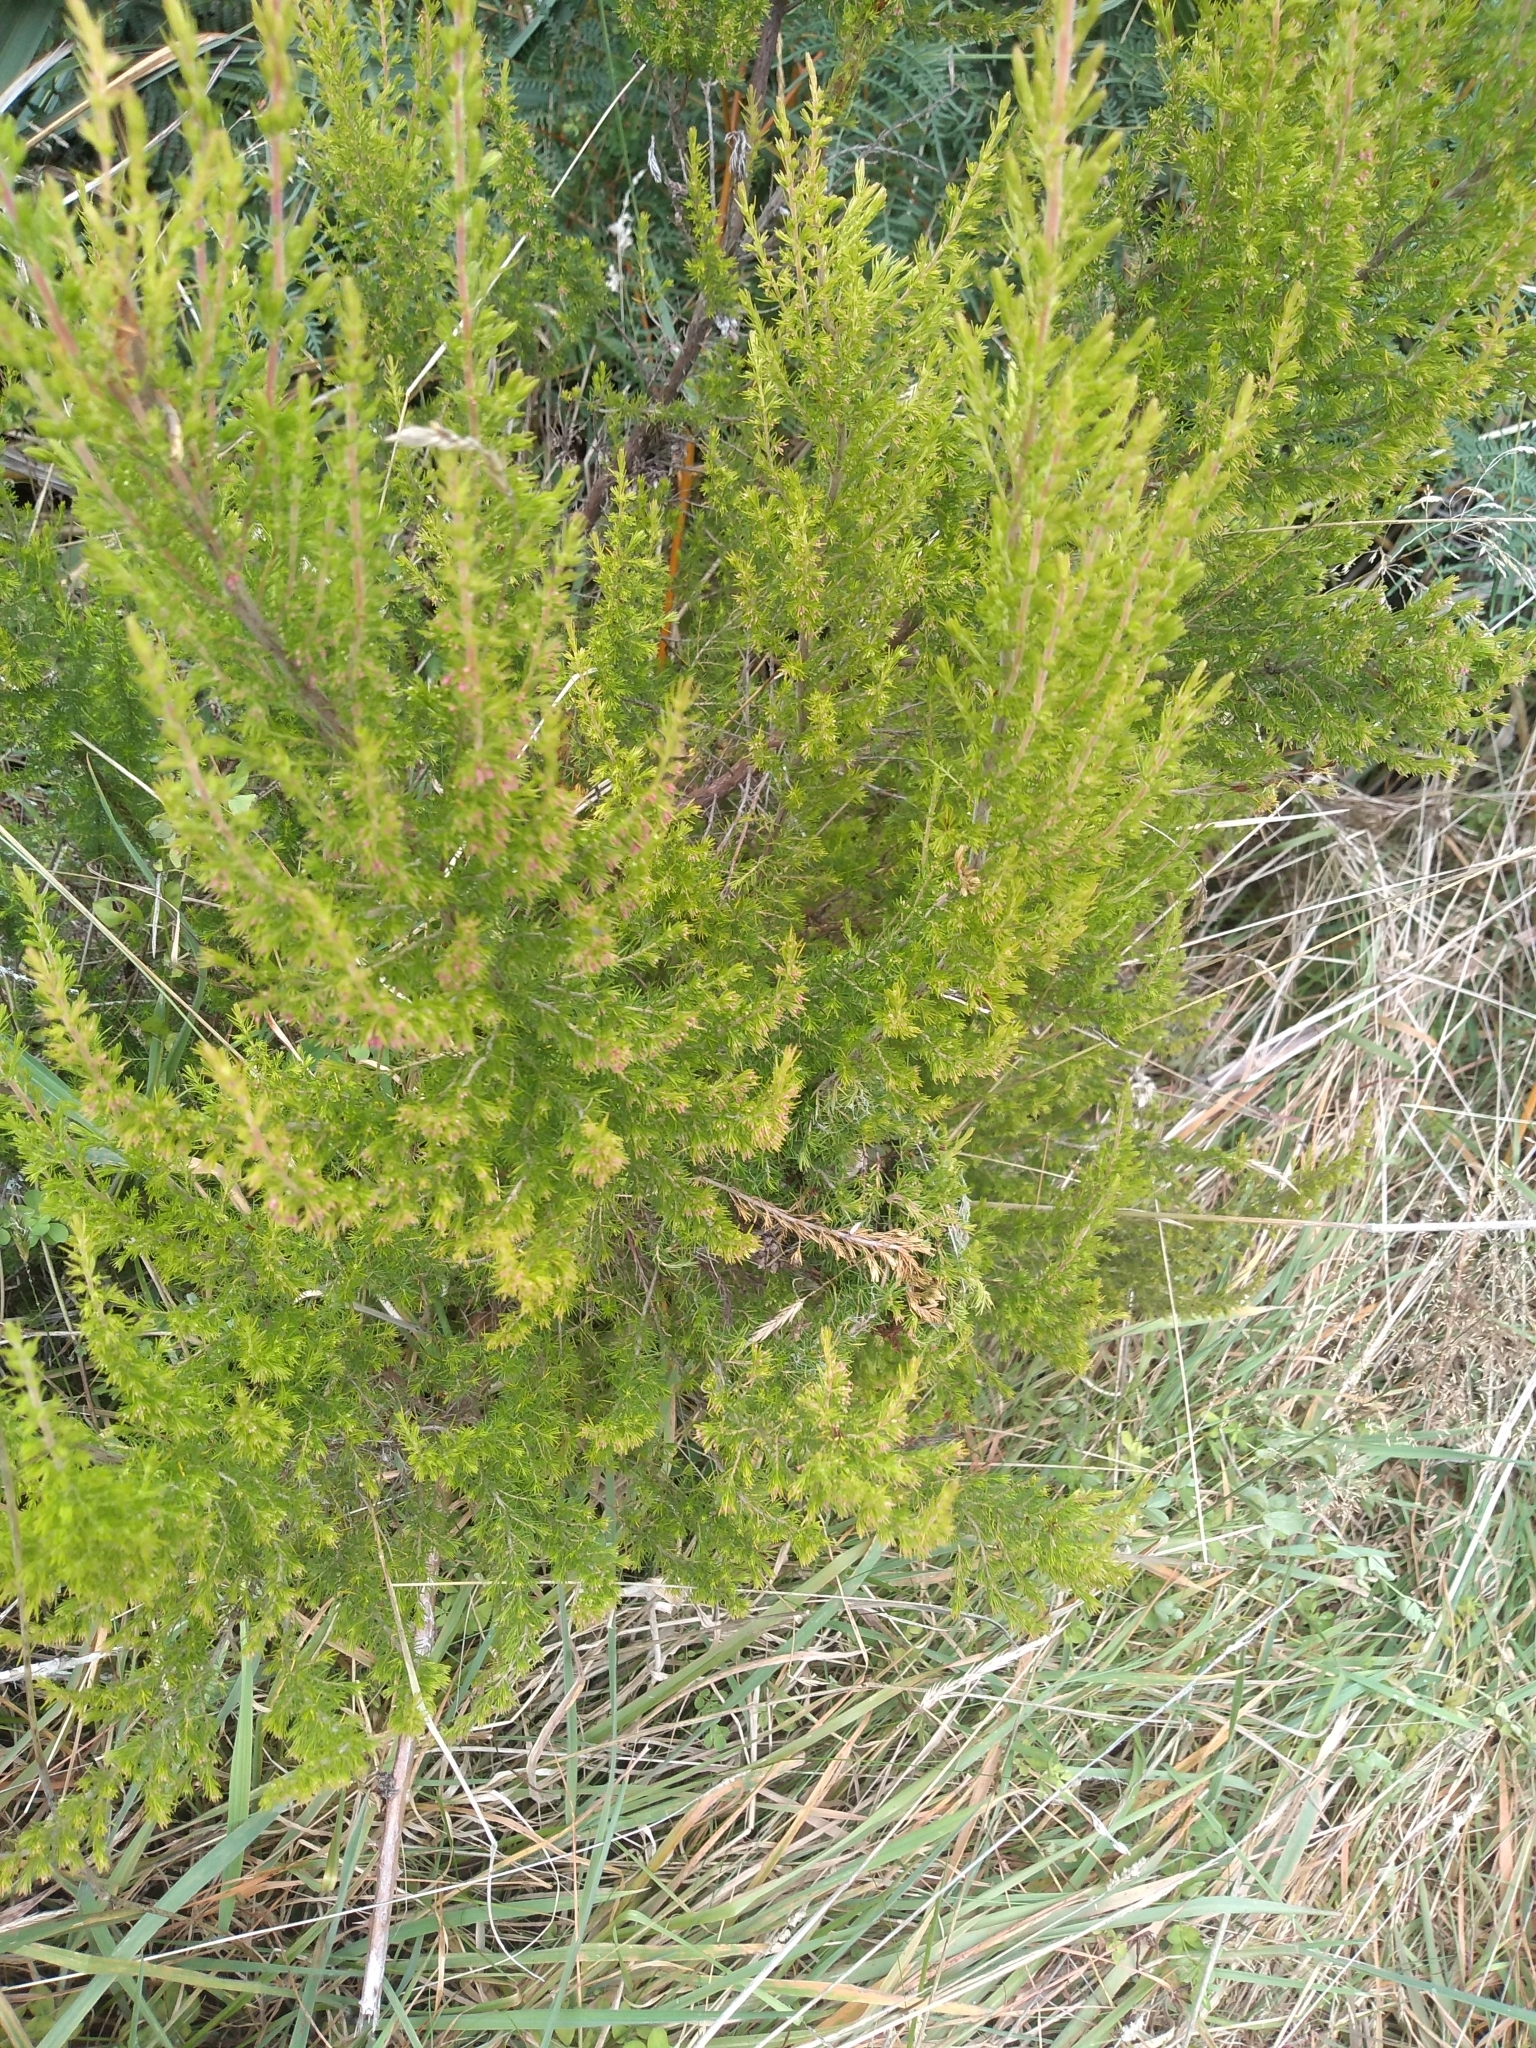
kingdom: Plantae
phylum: Tracheophyta
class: Magnoliopsida
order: Ericales
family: Ericaceae
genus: Erica
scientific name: Erica lusitanica
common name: Spanish heath
